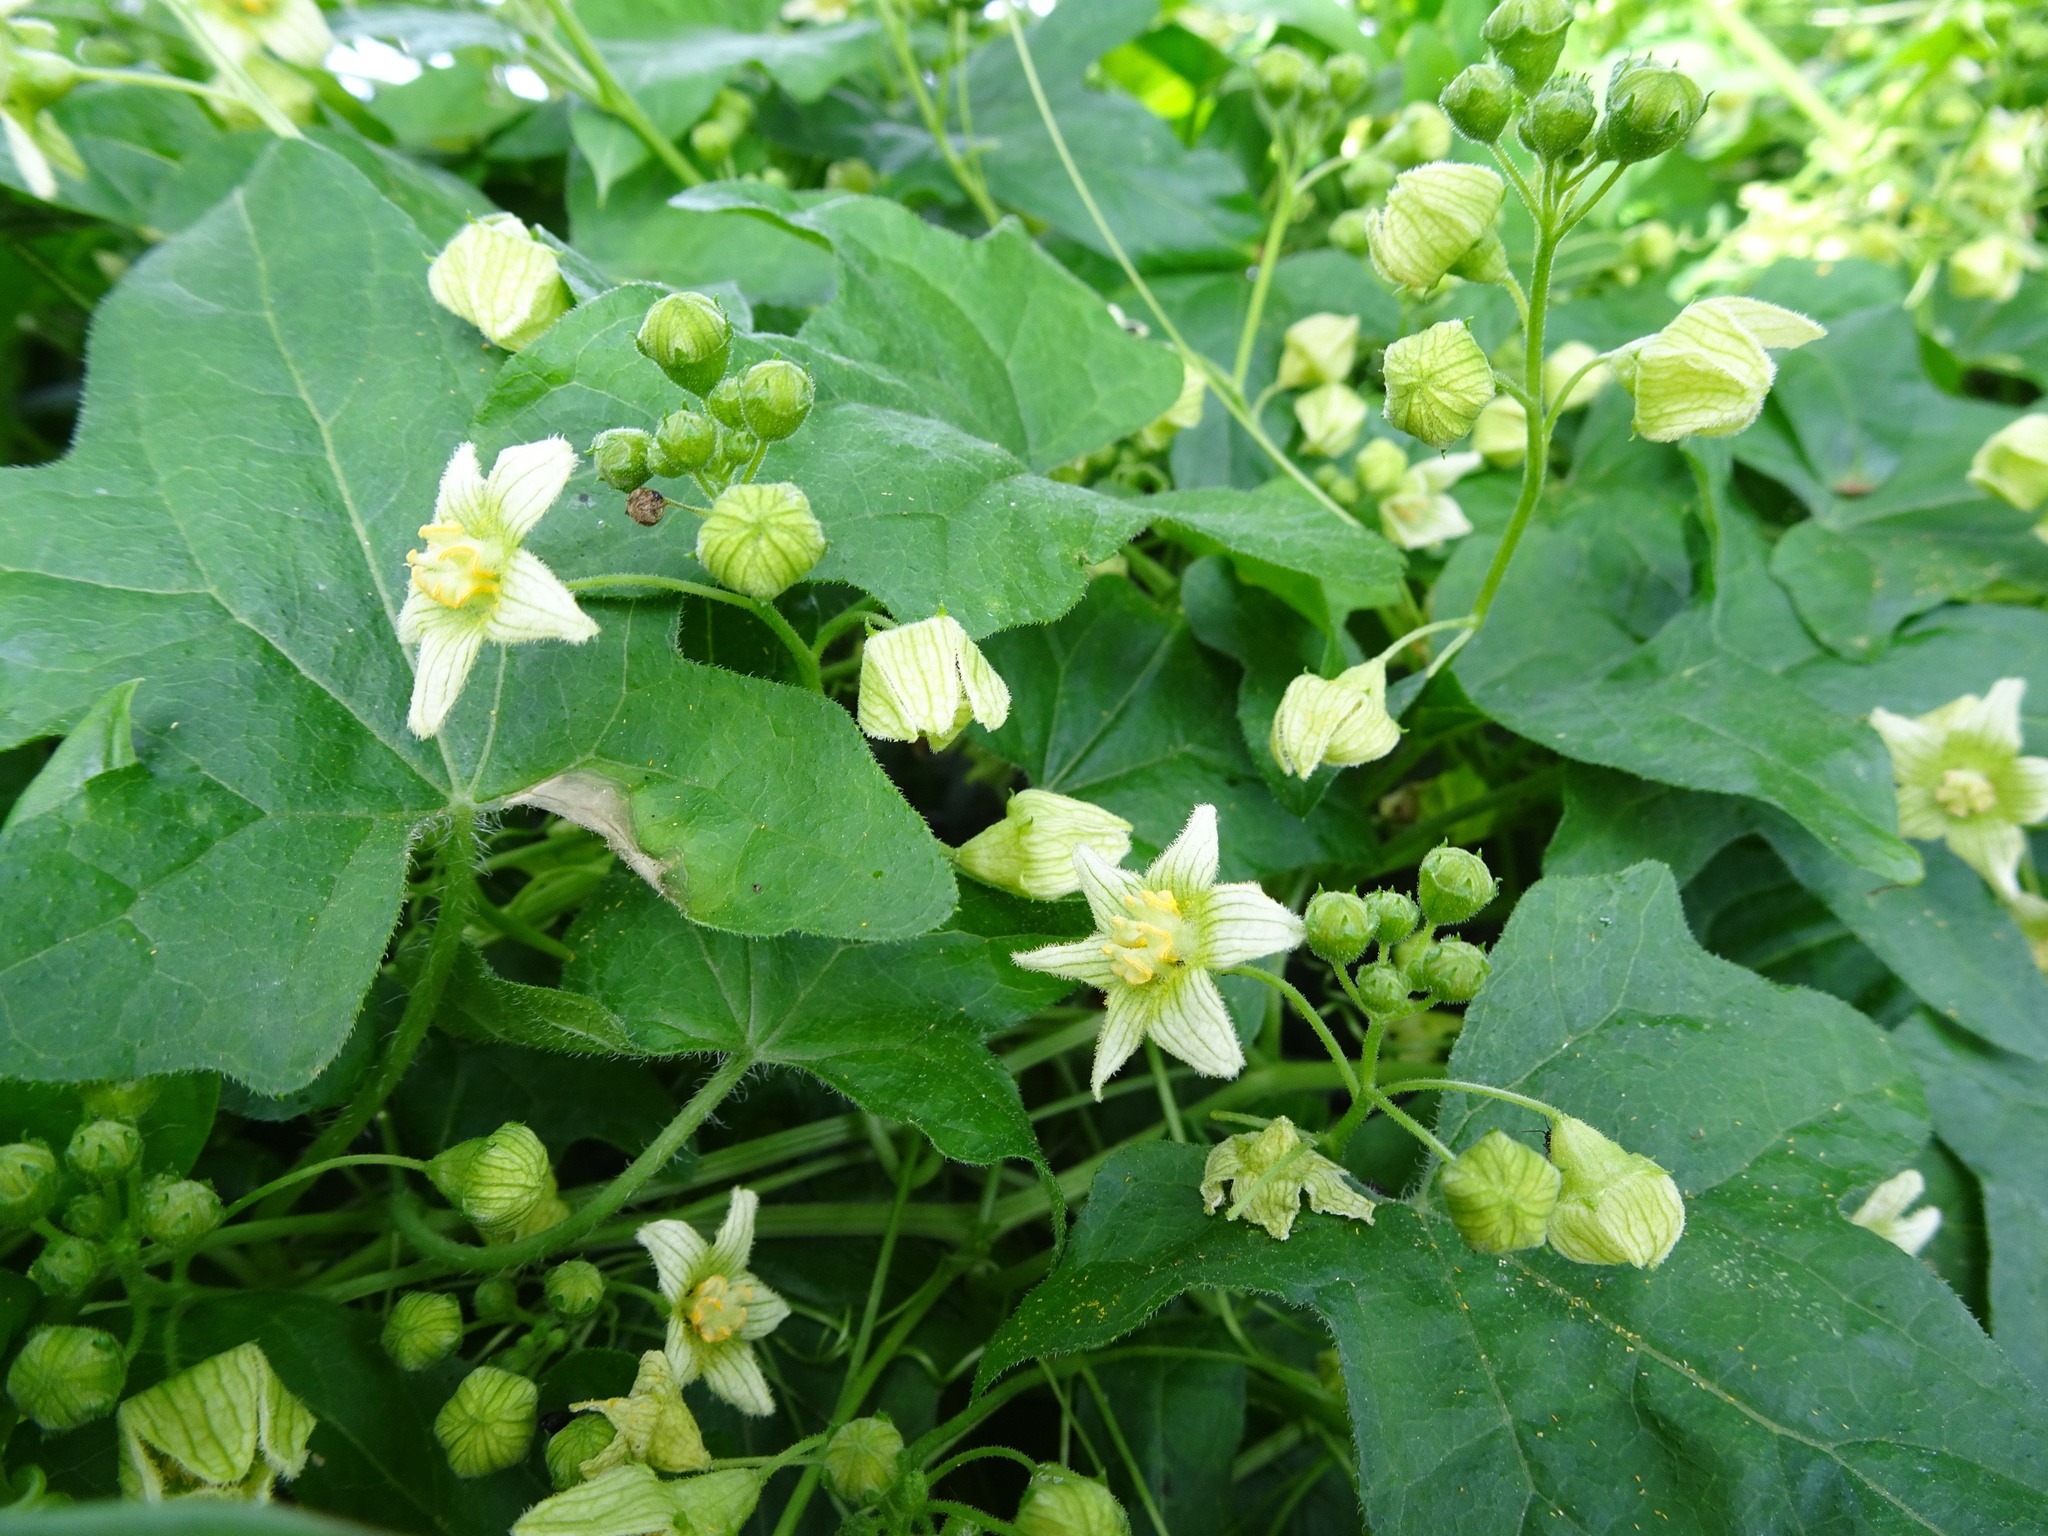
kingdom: Plantae
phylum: Tracheophyta
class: Magnoliopsida
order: Cucurbitales
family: Cucurbitaceae
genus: Bryonia
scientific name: Bryonia dioica
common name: White bryony
